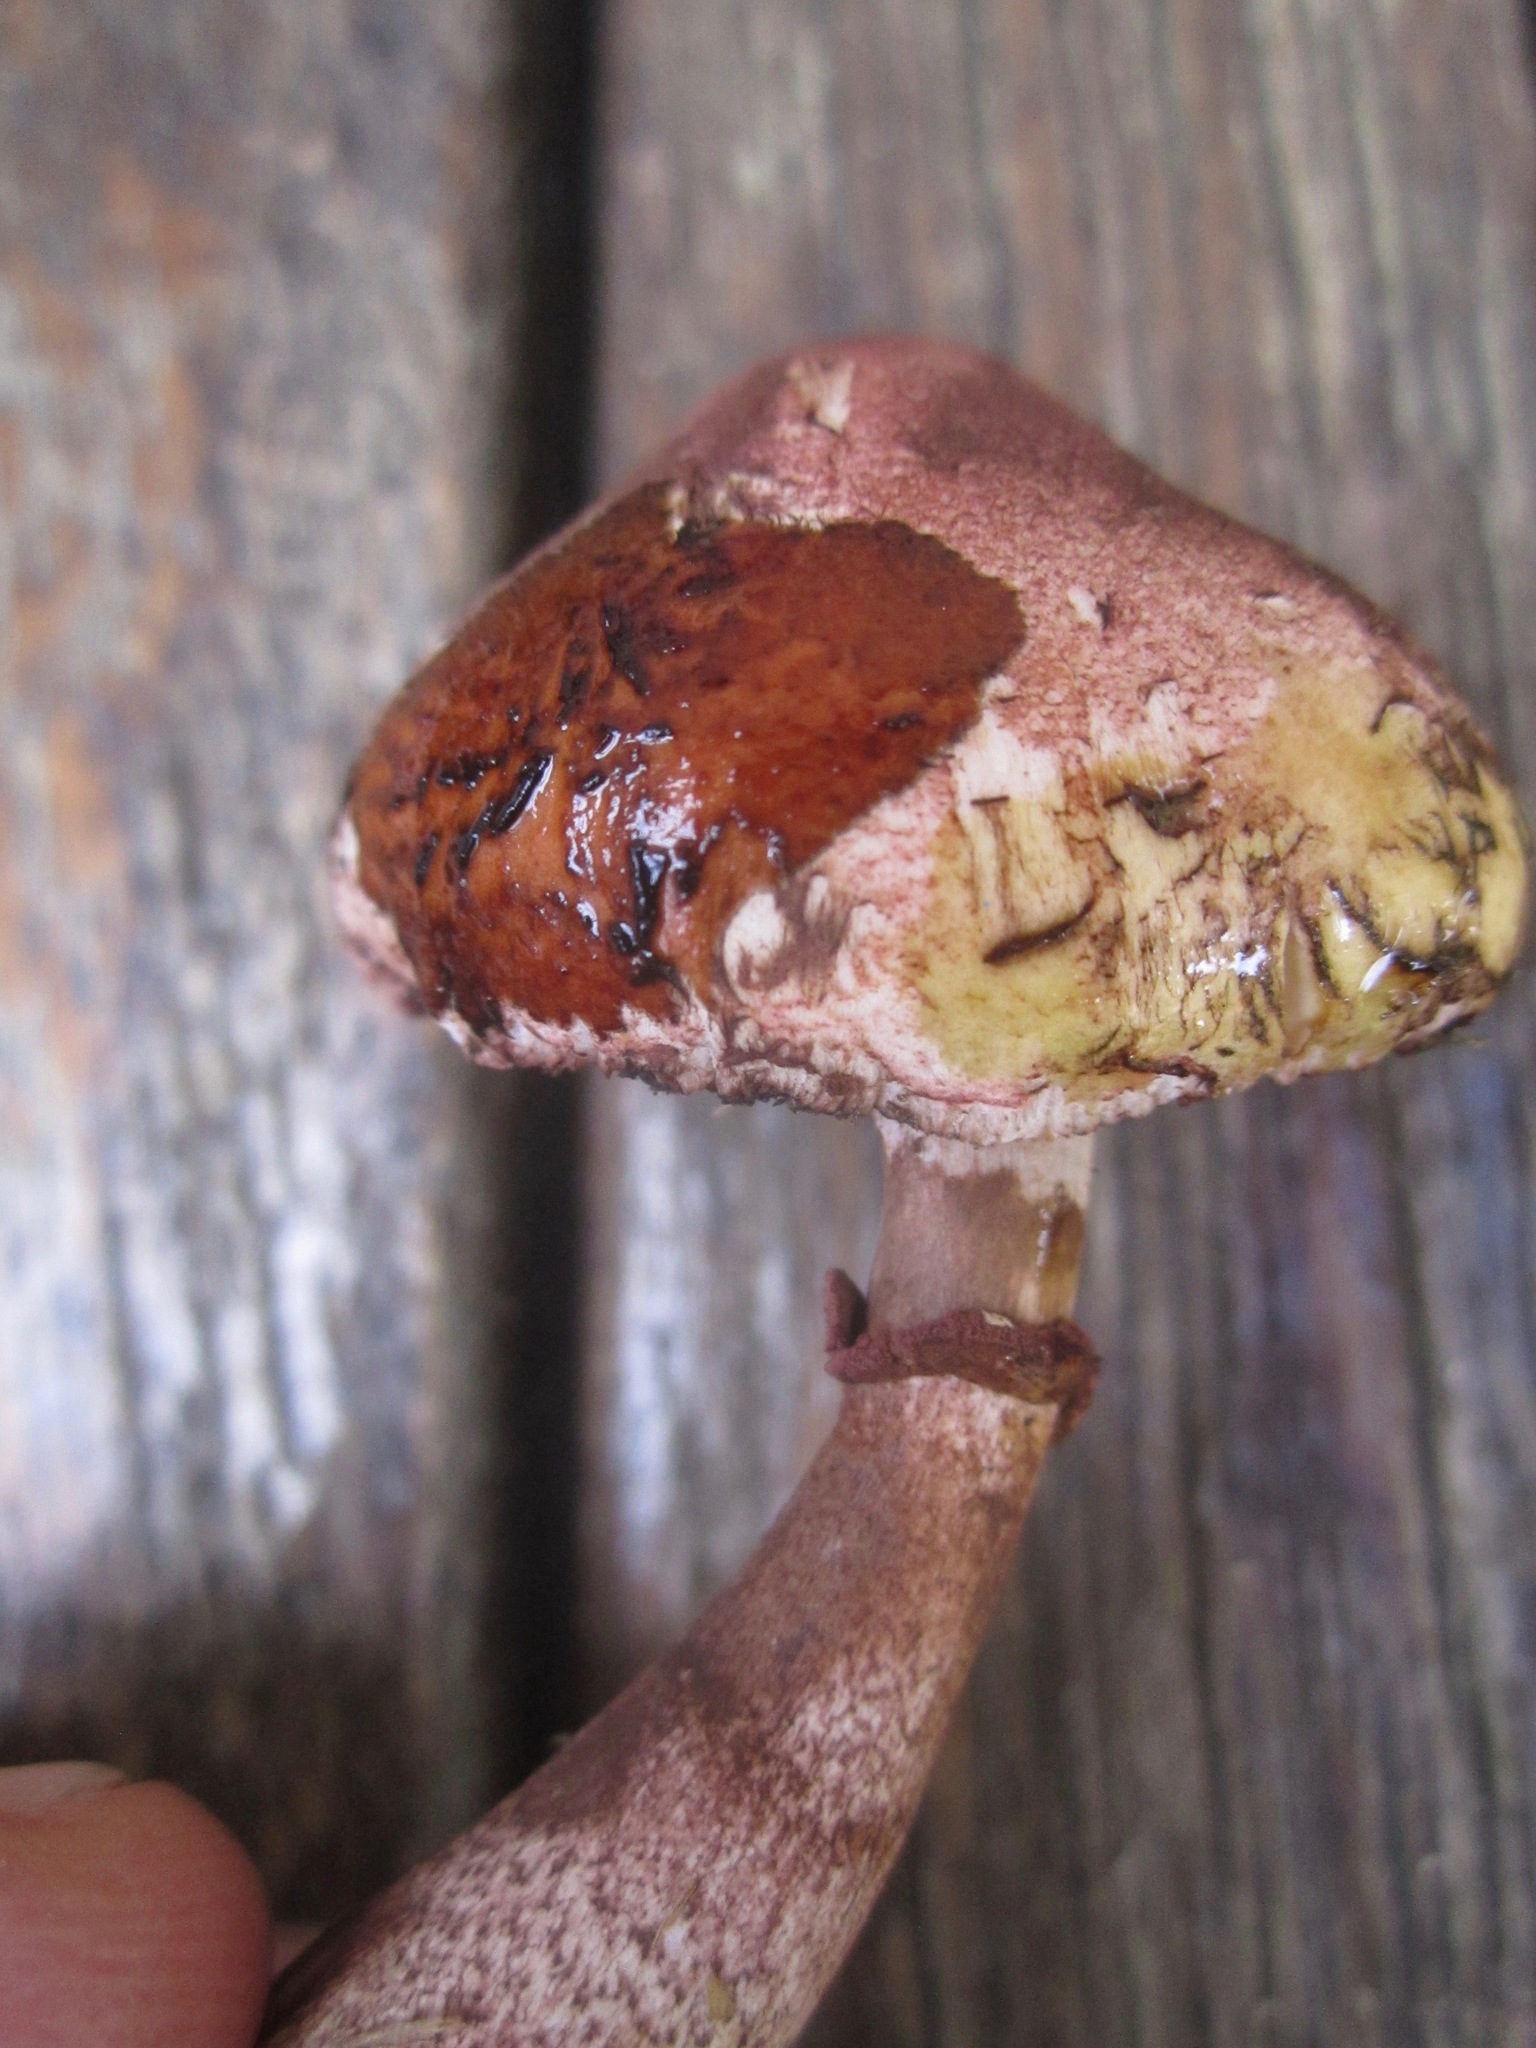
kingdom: Fungi
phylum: Basidiomycota
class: Agaricomycetes
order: Agaricales
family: Agaricaceae
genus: Leucoagaricus
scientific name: Leucoagaricus americanus
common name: Reddening lepiota
